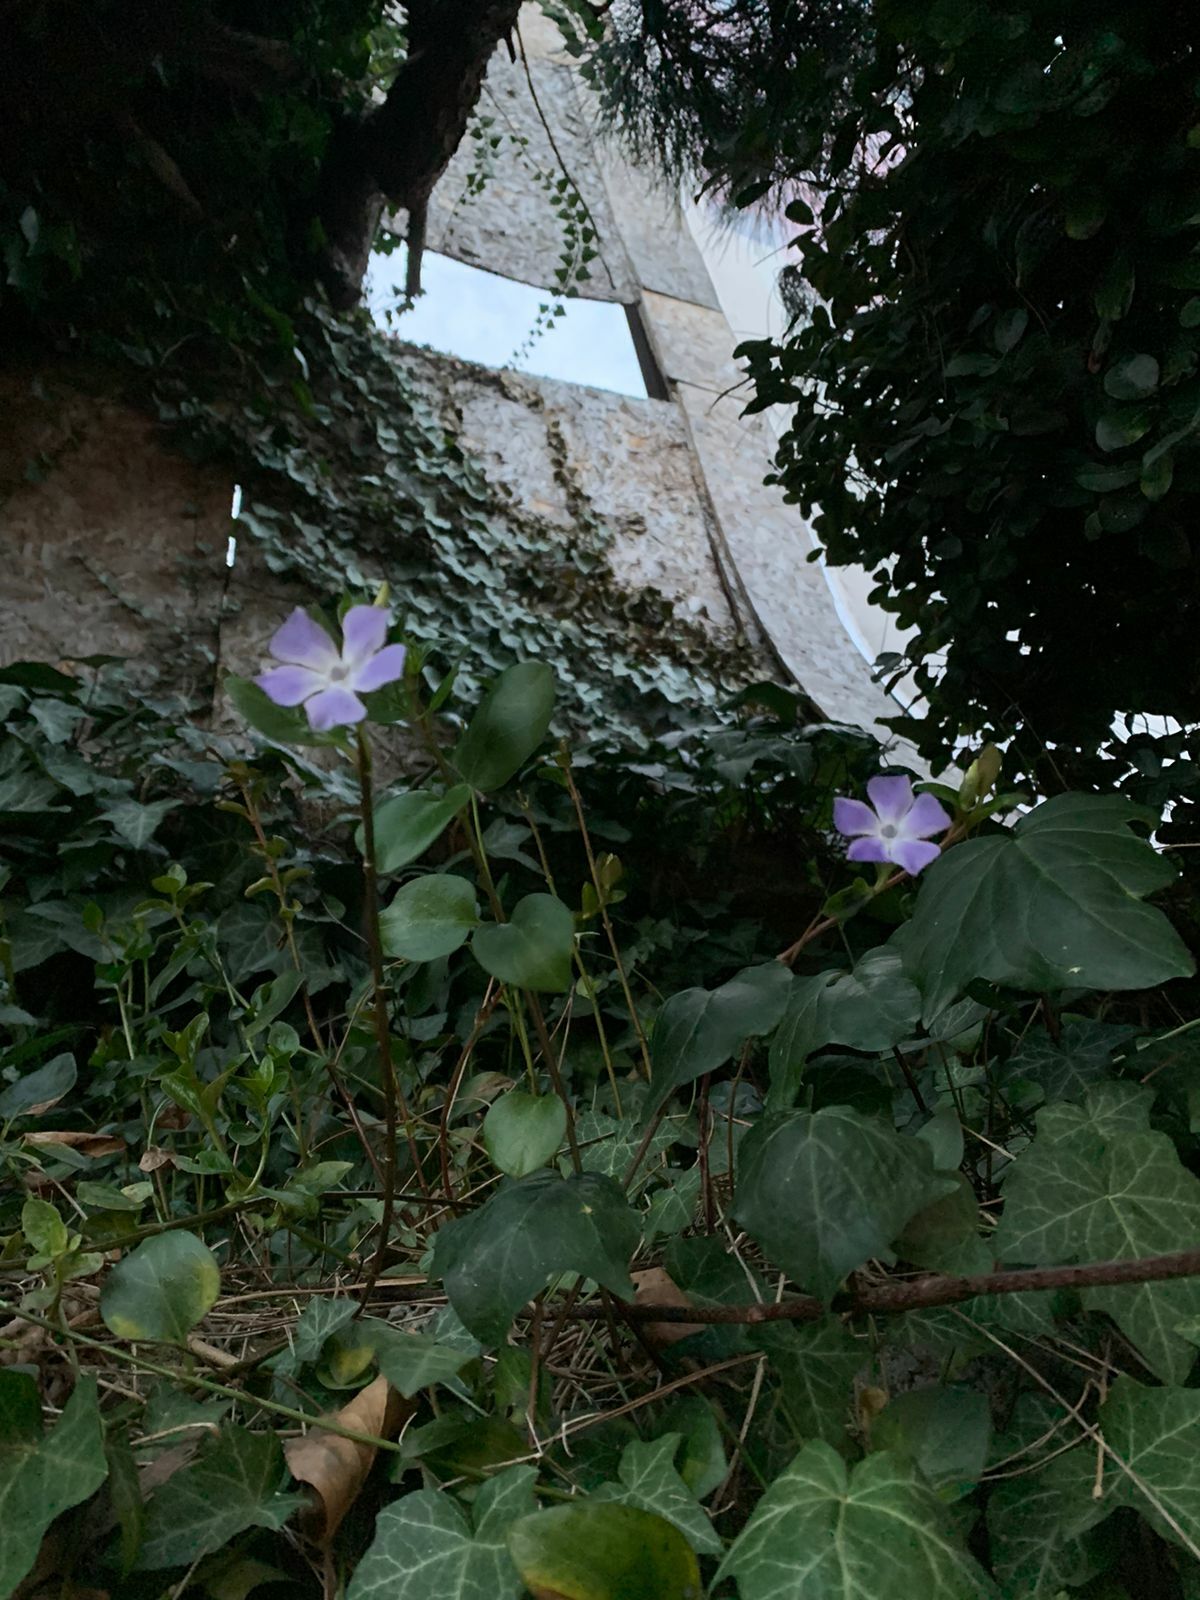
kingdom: Plantae
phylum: Tracheophyta
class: Magnoliopsida
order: Gentianales
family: Apocynaceae
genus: Vinca
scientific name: Vinca major
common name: Greater periwinkle
